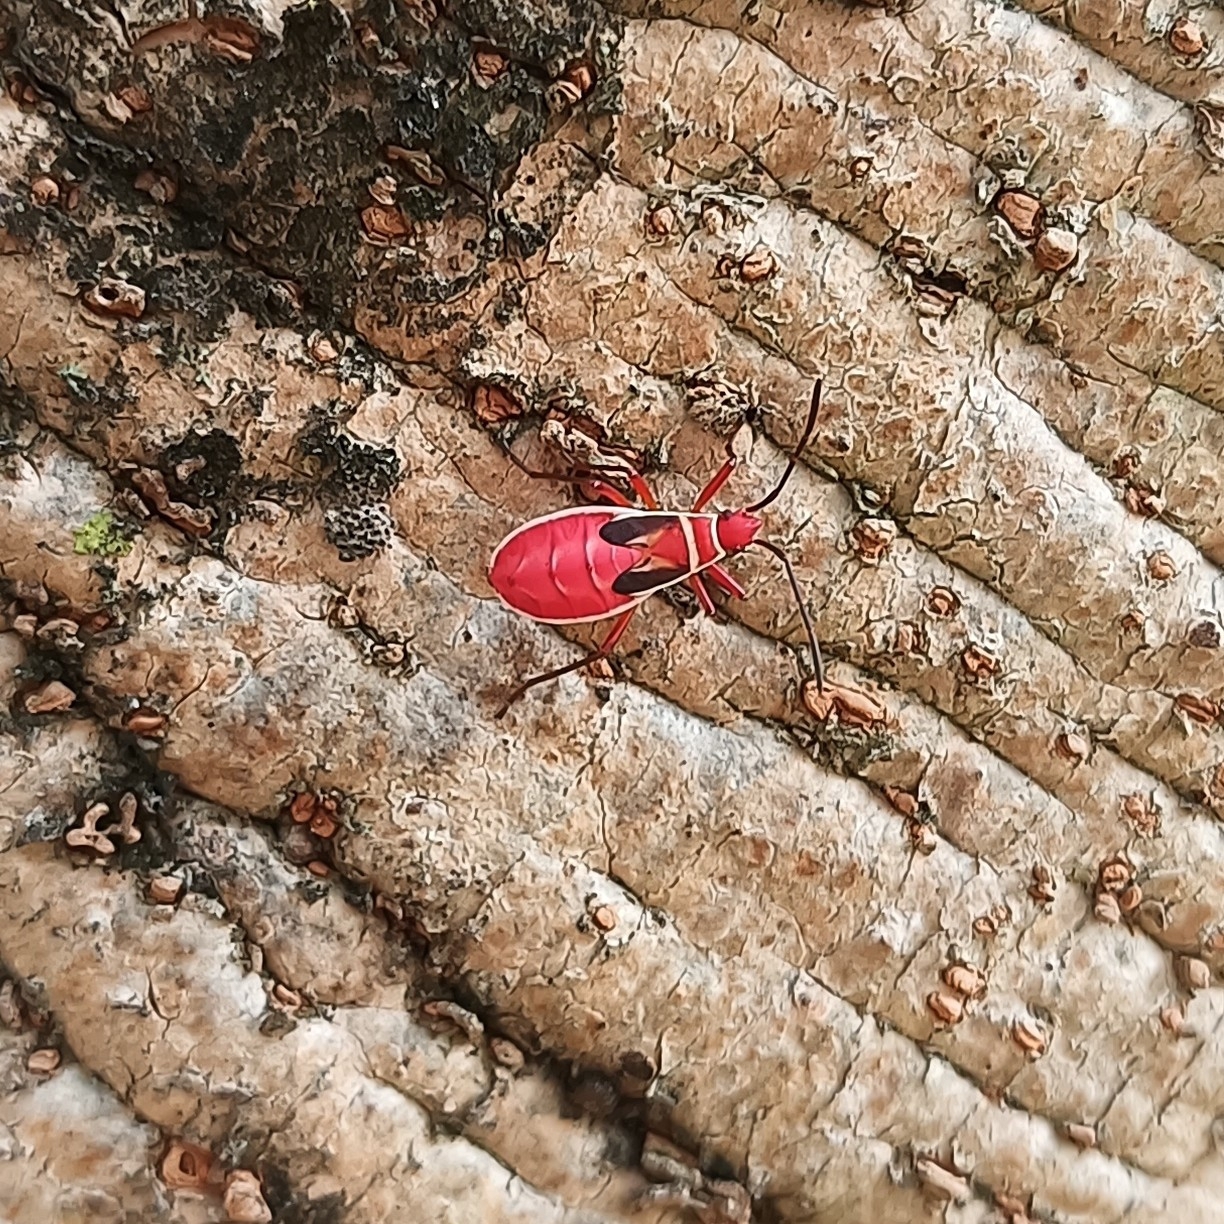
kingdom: Animalia
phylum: Arthropoda
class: Insecta
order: Hemiptera
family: Pyrrhocoridae
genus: Dysdercus
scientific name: Dysdercus mimulus
